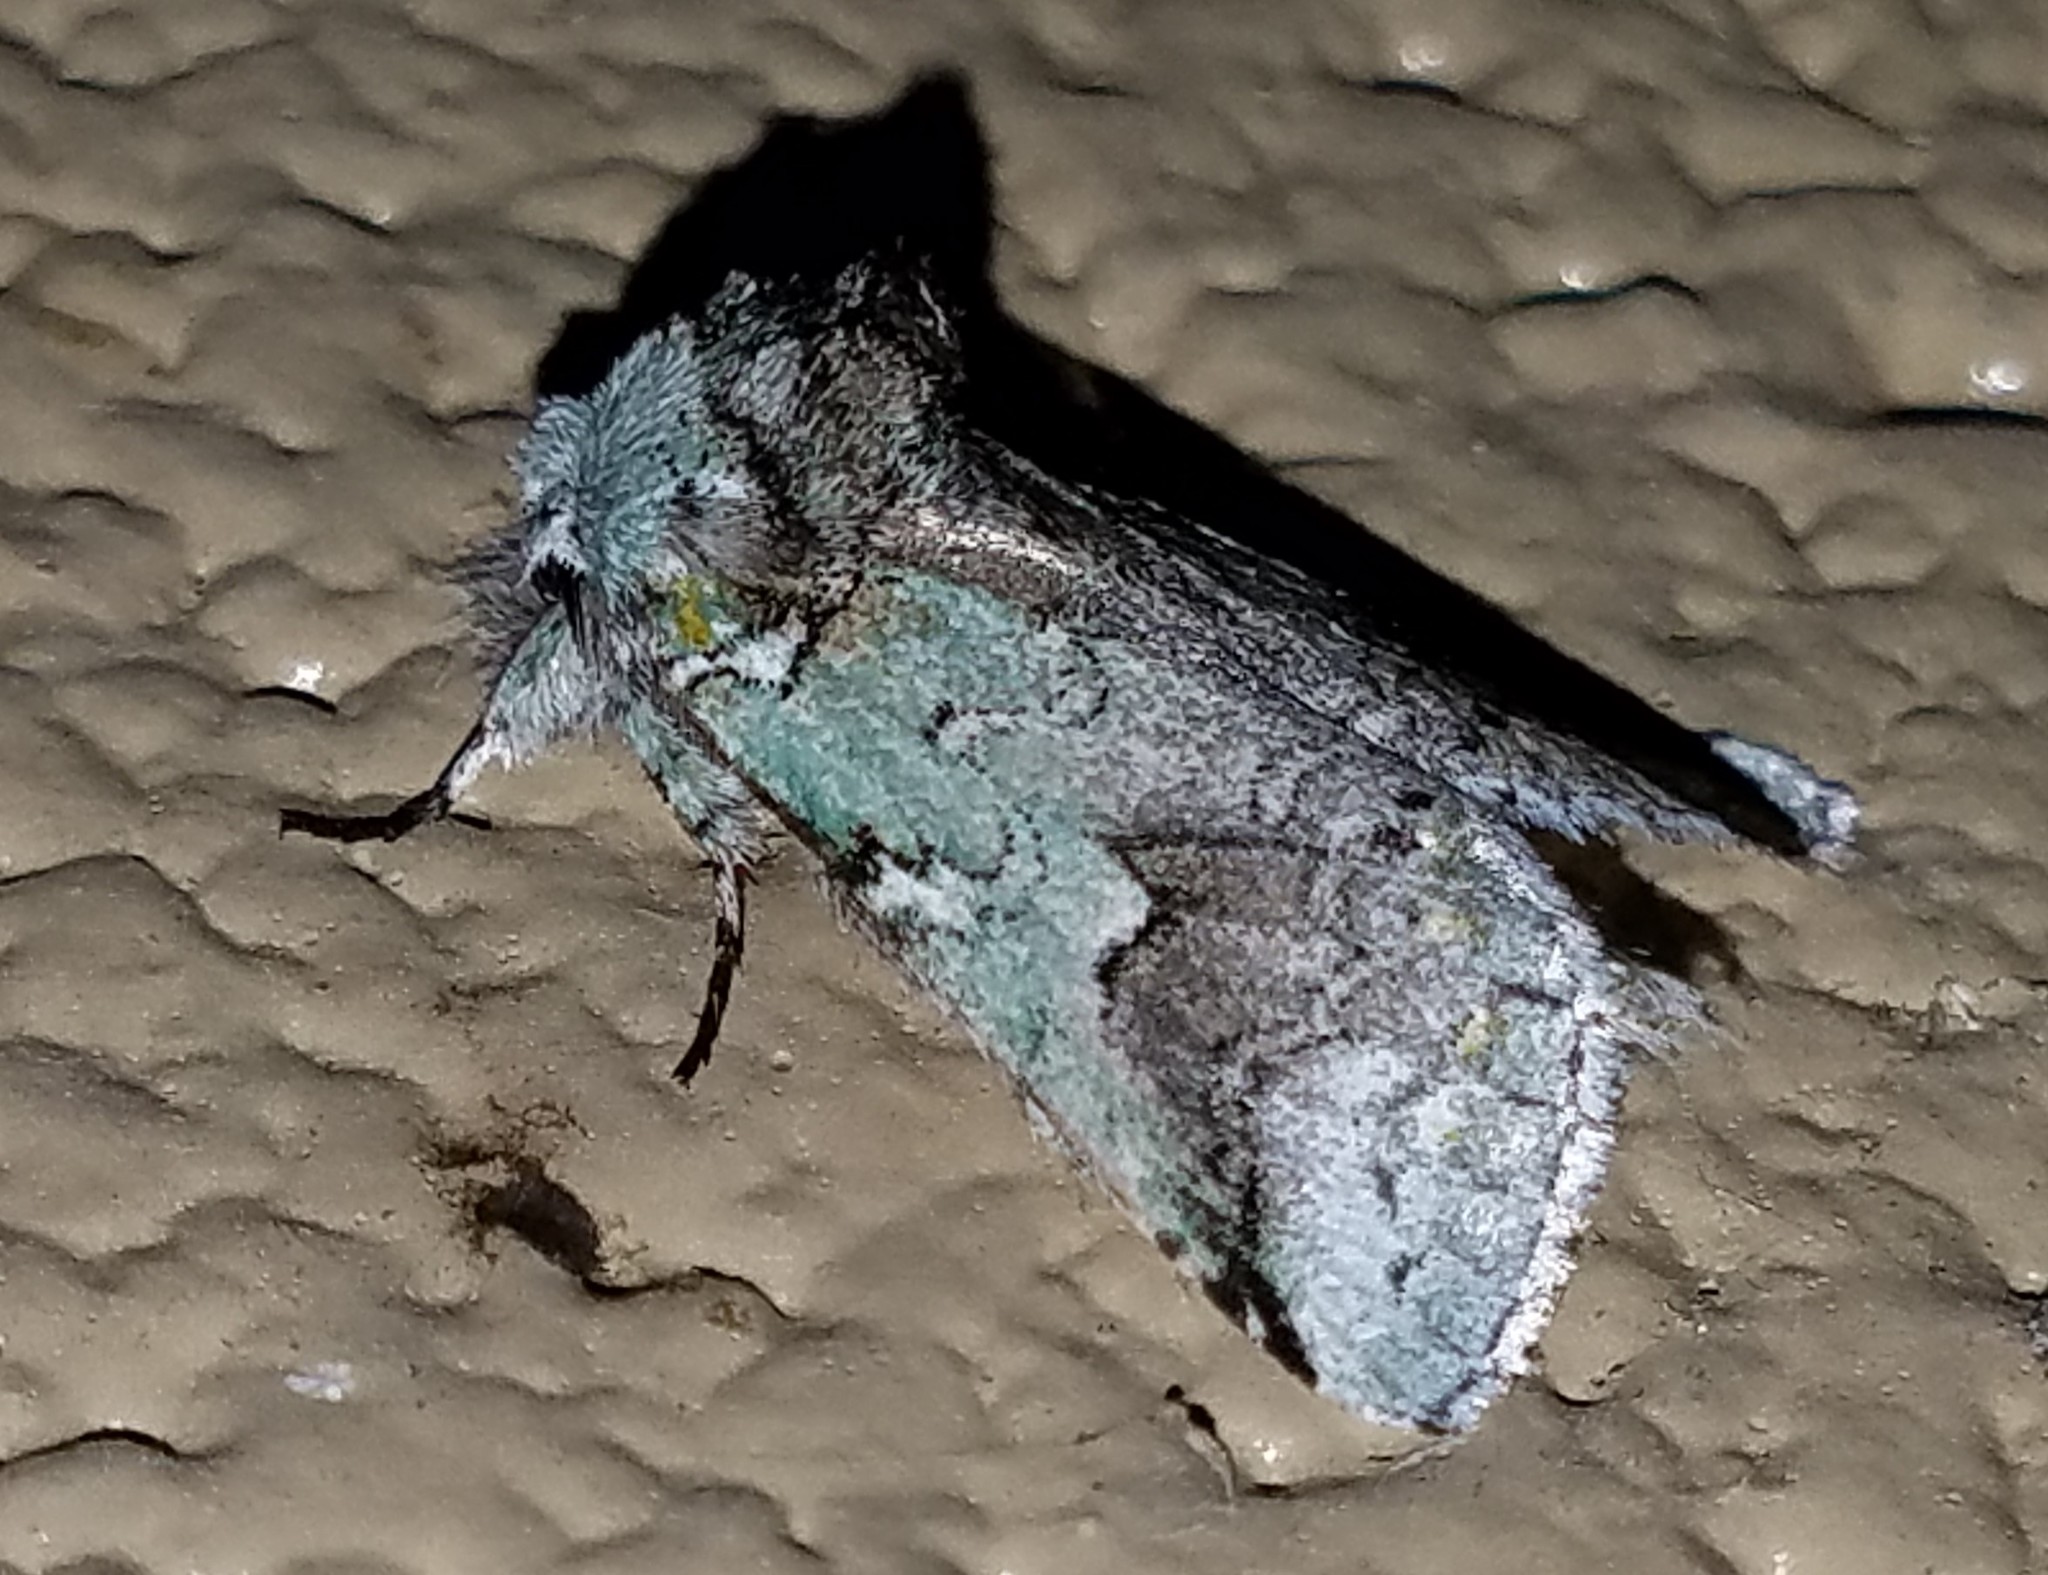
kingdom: Animalia
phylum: Arthropoda
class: Insecta
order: Lepidoptera
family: Notodontidae
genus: Litodonta
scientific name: Litodonta hydromeli
